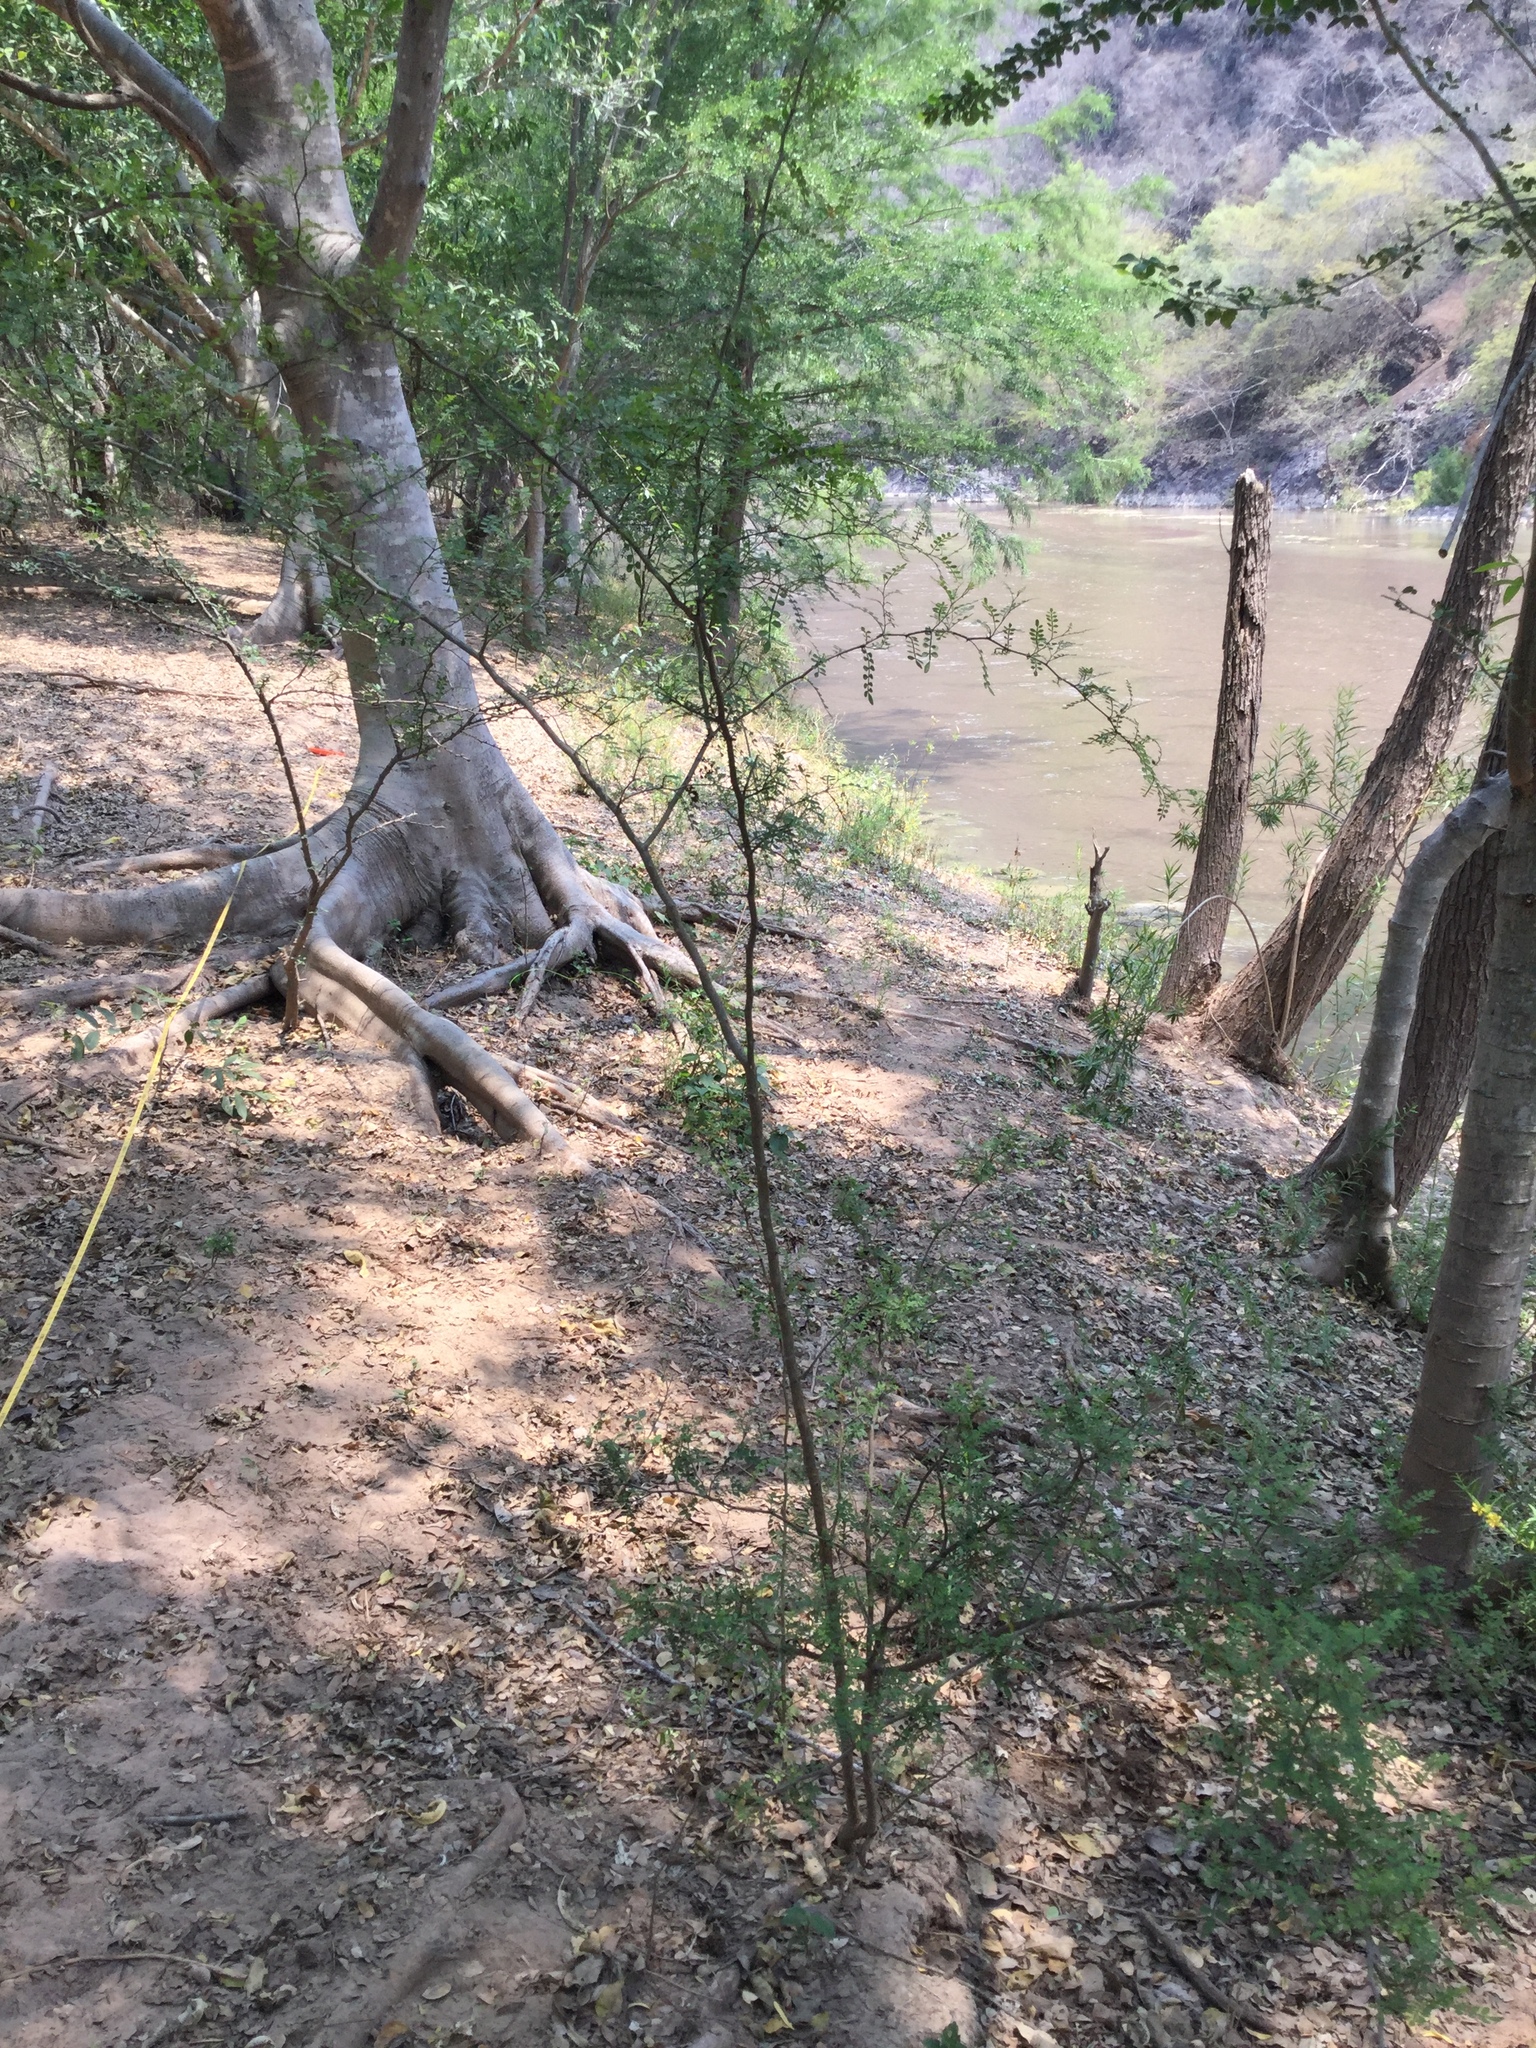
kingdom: Plantae
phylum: Tracheophyta
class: Magnoliopsida
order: Sapindales
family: Rutaceae
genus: Zanthoxylum
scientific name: Zanthoxylum fagara
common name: Lime prickly-ash
